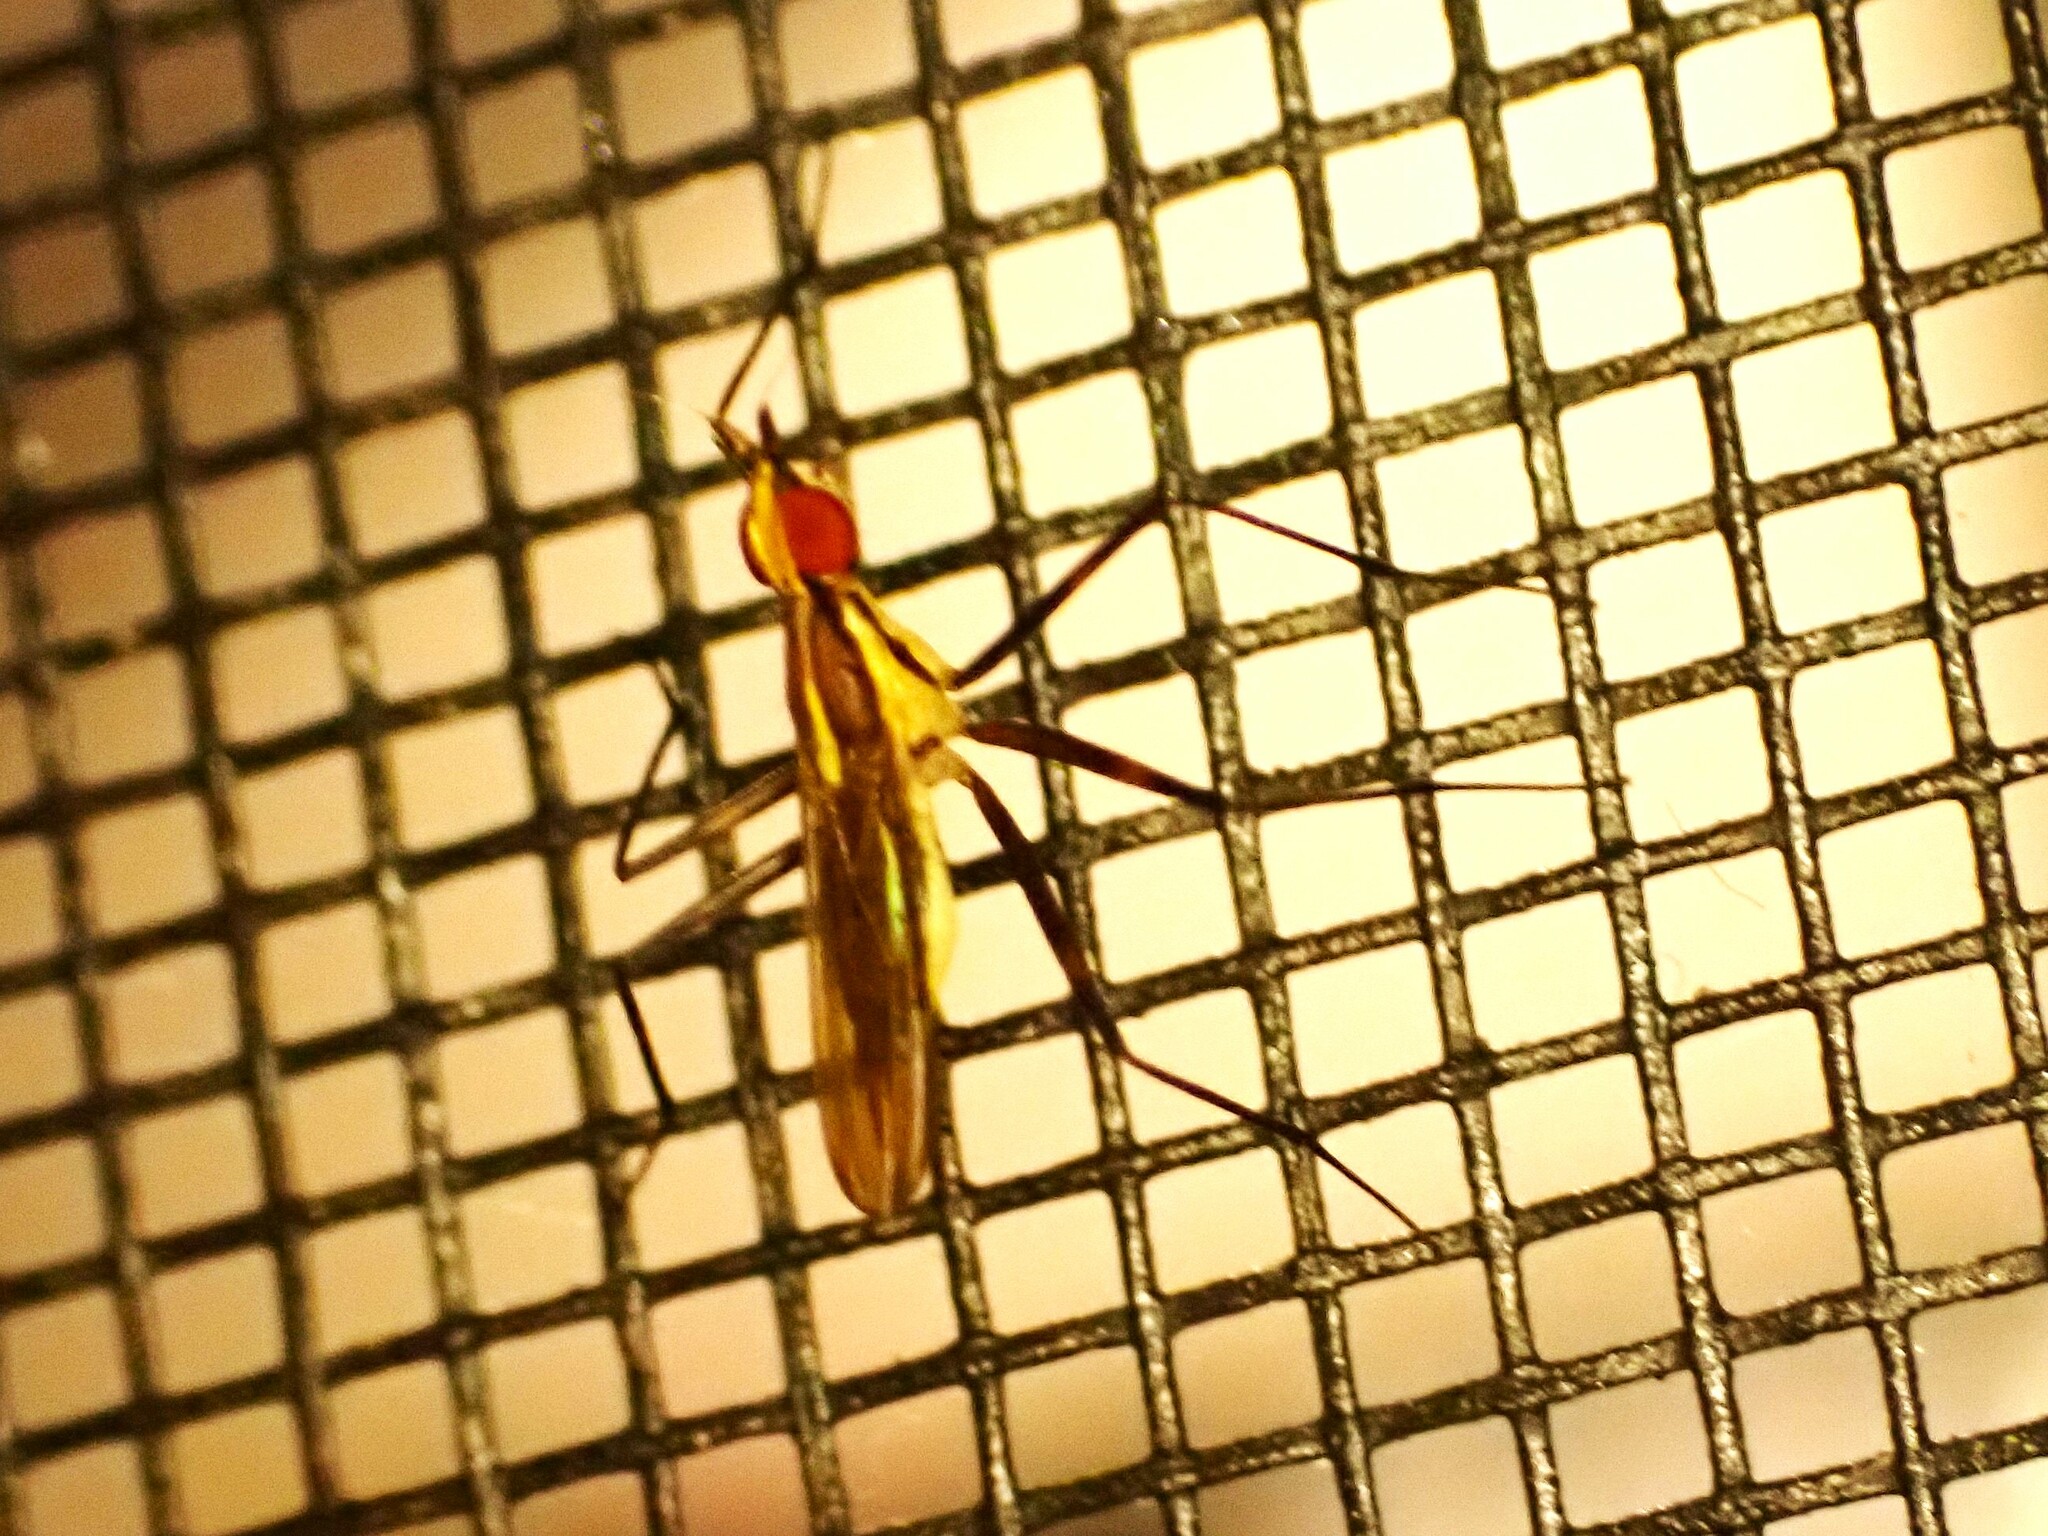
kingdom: Animalia
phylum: Arthropoda
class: Insecta
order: Diptera
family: Neriidae
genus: Telostylinus
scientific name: Telostylinus lineolatus
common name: Banana stalk fly
